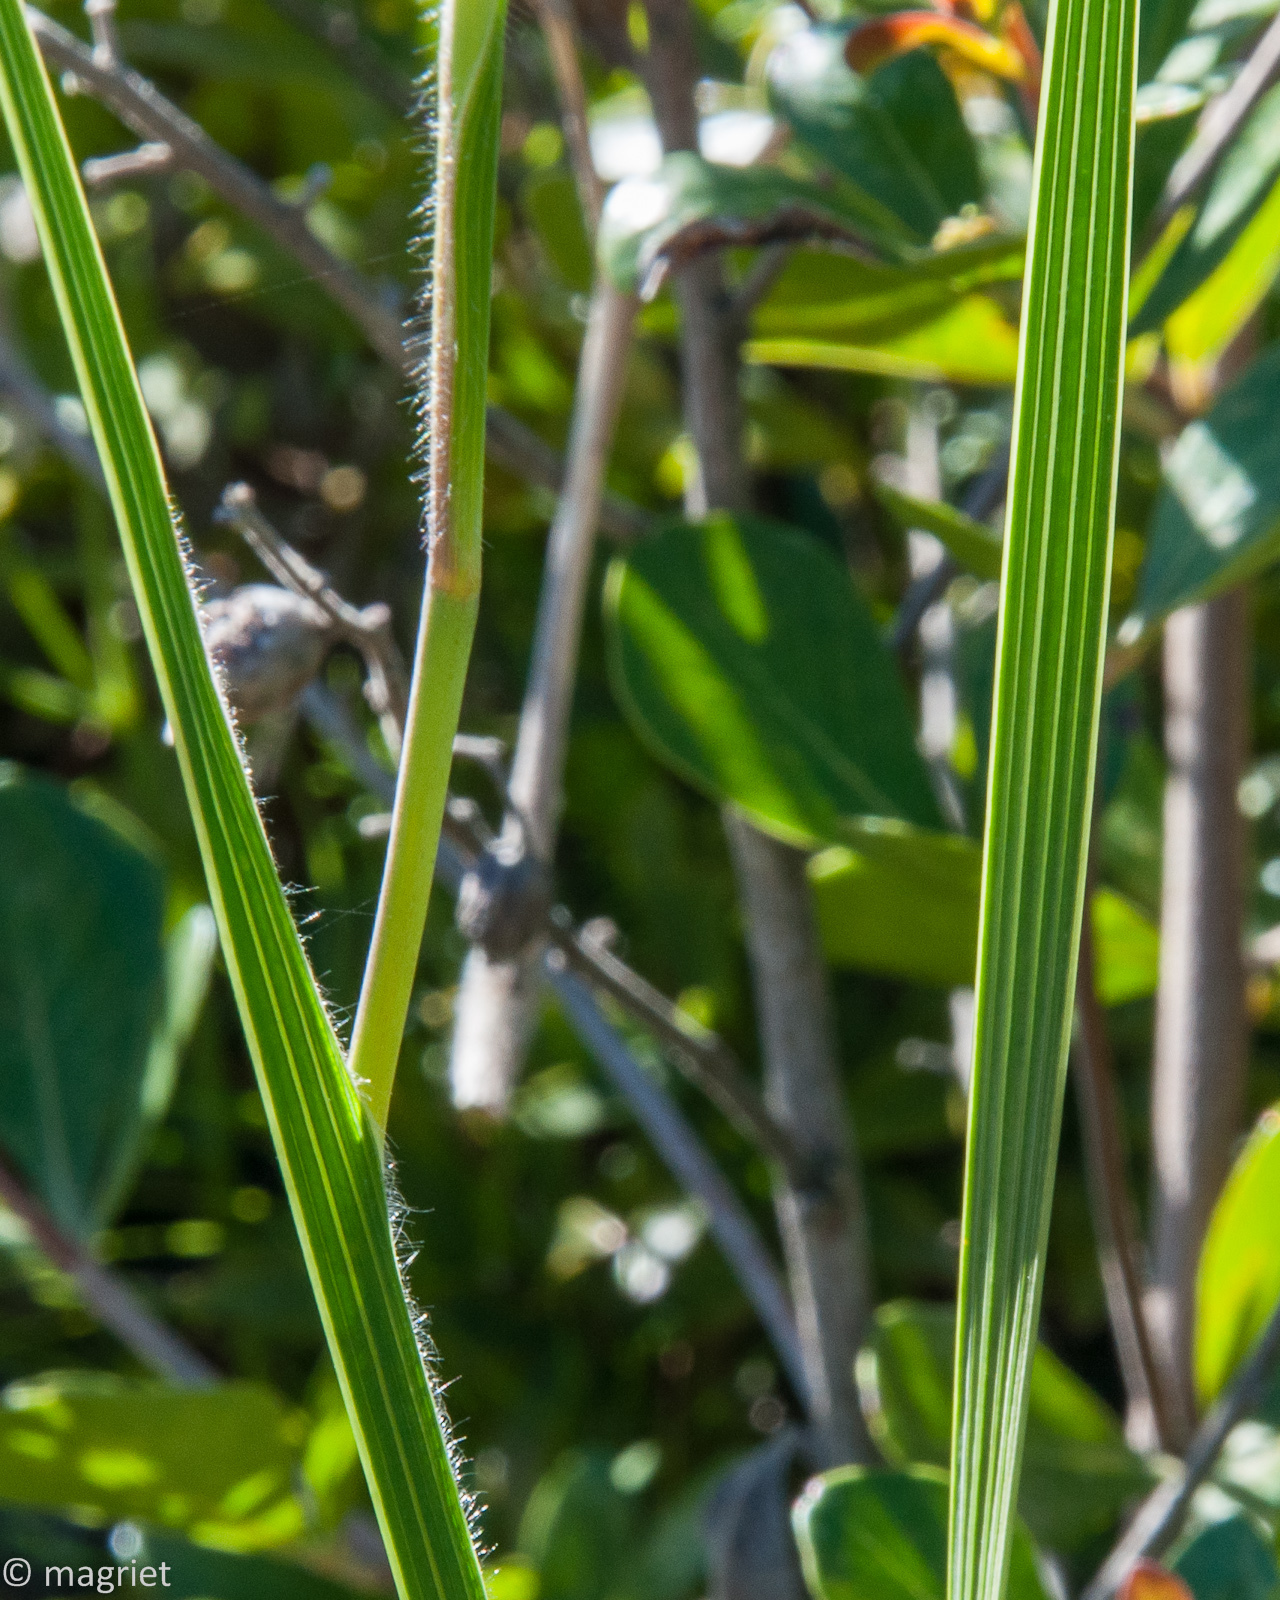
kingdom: Plantae
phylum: Tracheophyta
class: Liliopsida
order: Asparagales
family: Iridaceae
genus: Gladiolus
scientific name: Gladiolus hirsutus
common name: Small pink afrikaner
